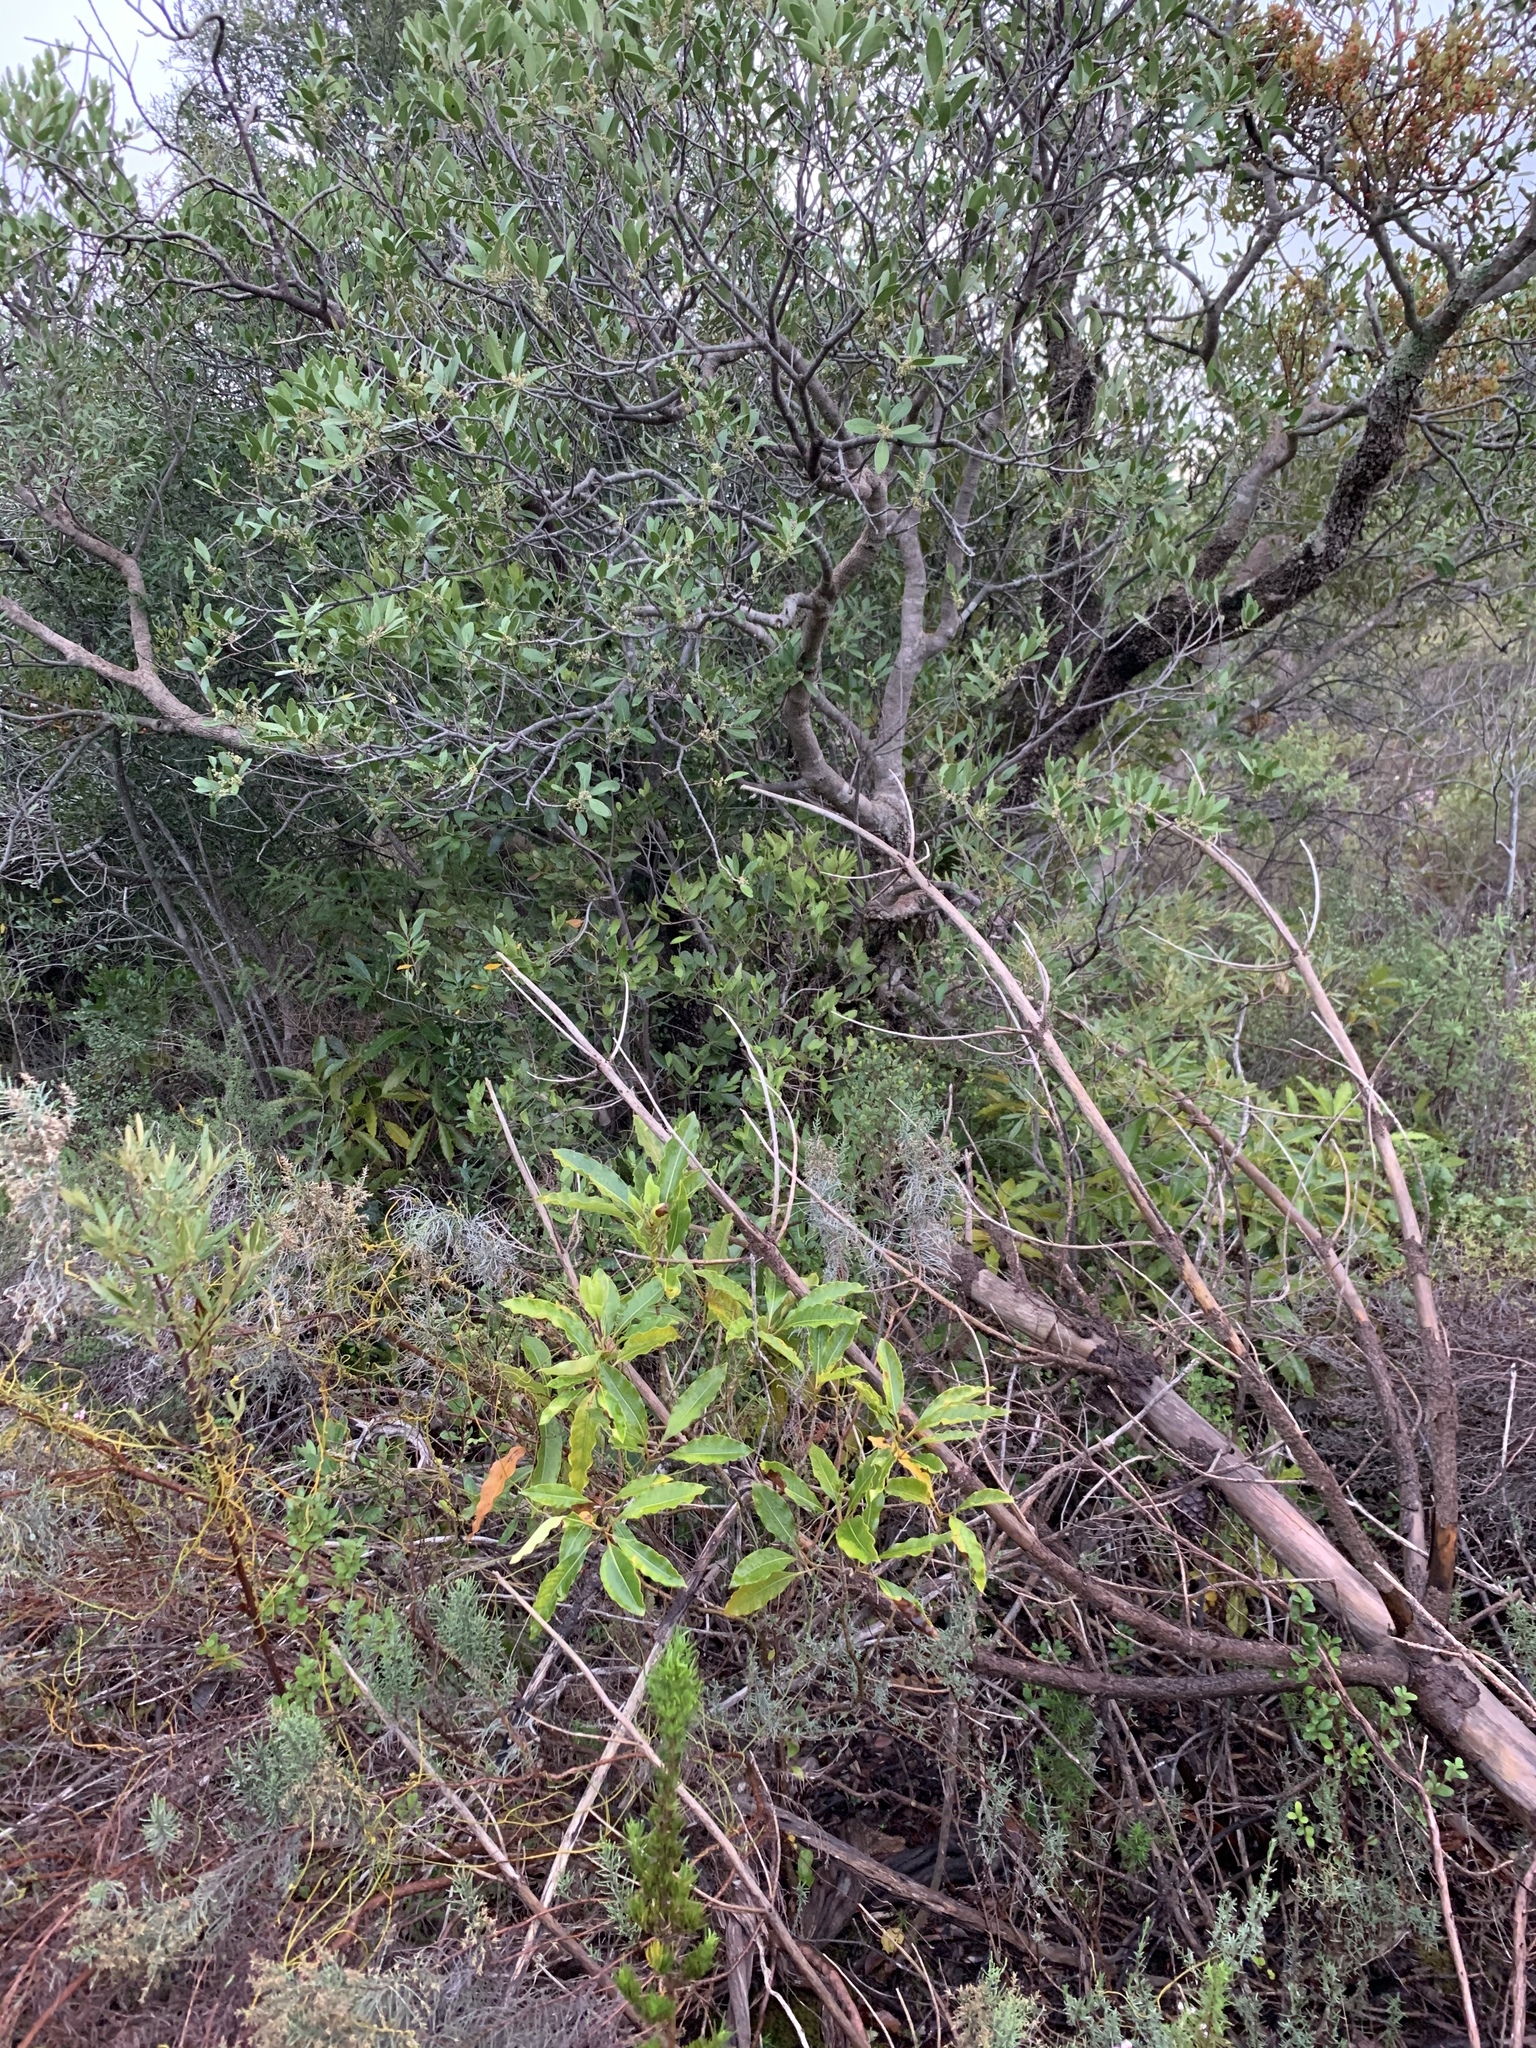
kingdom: Plantae
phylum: Tracheophyta
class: Magnoliopsida
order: Apiales
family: Pittosporaceae
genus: Pittosporum
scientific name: Pittosporum undulatum
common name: Australian cheesewood
